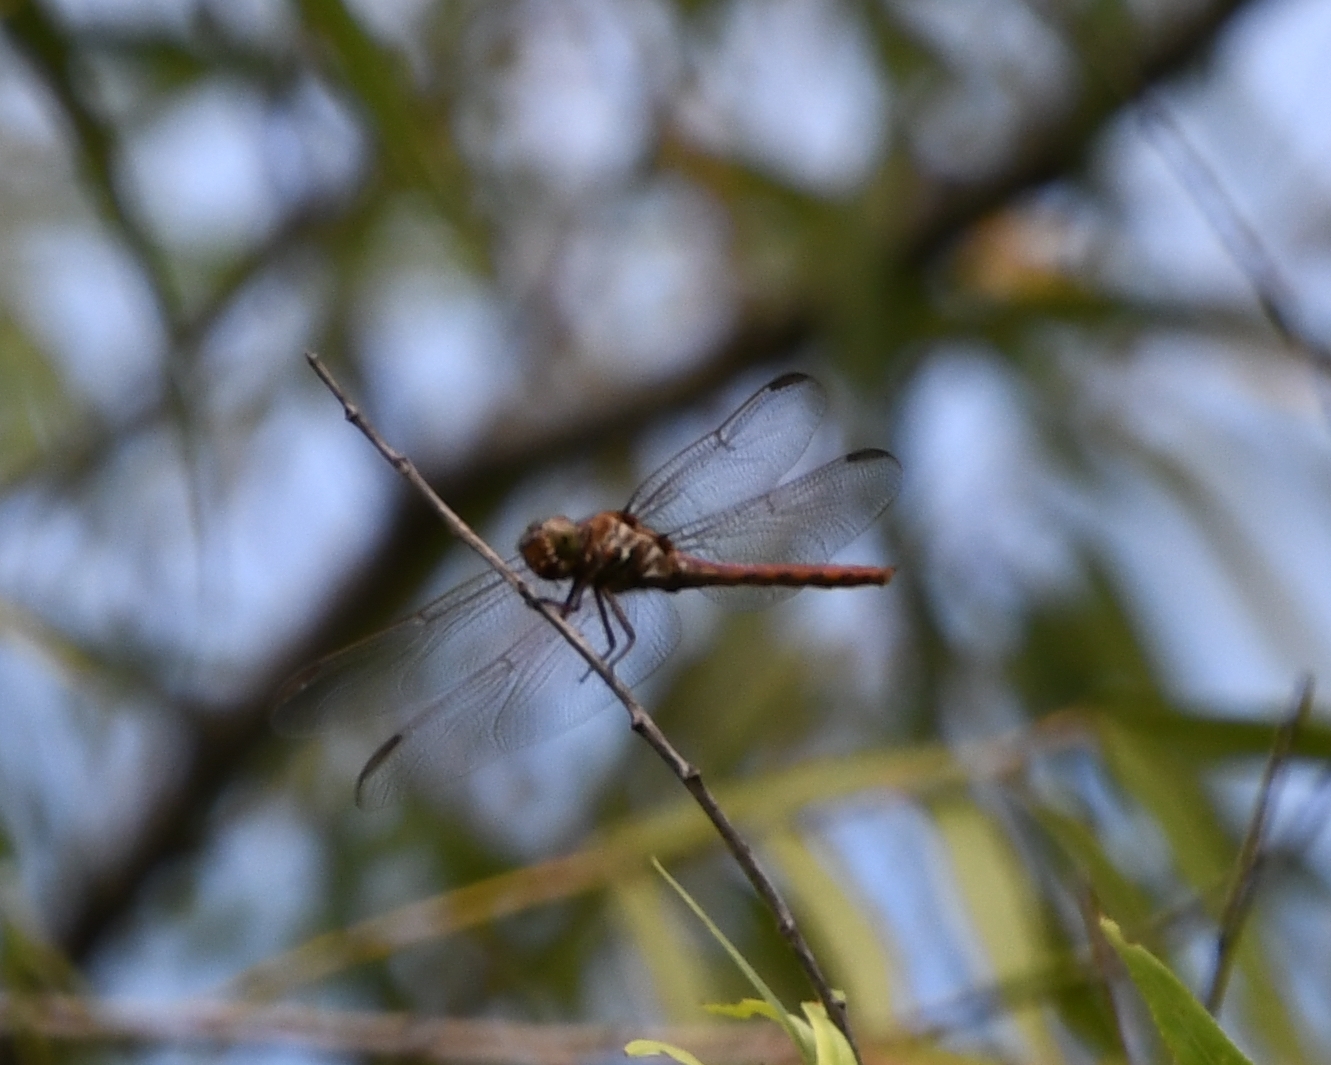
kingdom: Animalia
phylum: Arthropoda
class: Insecta
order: Odonata
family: Libellulidae
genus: Orthemis
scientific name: Orthemis ferruginea
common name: Roseate skimmer
